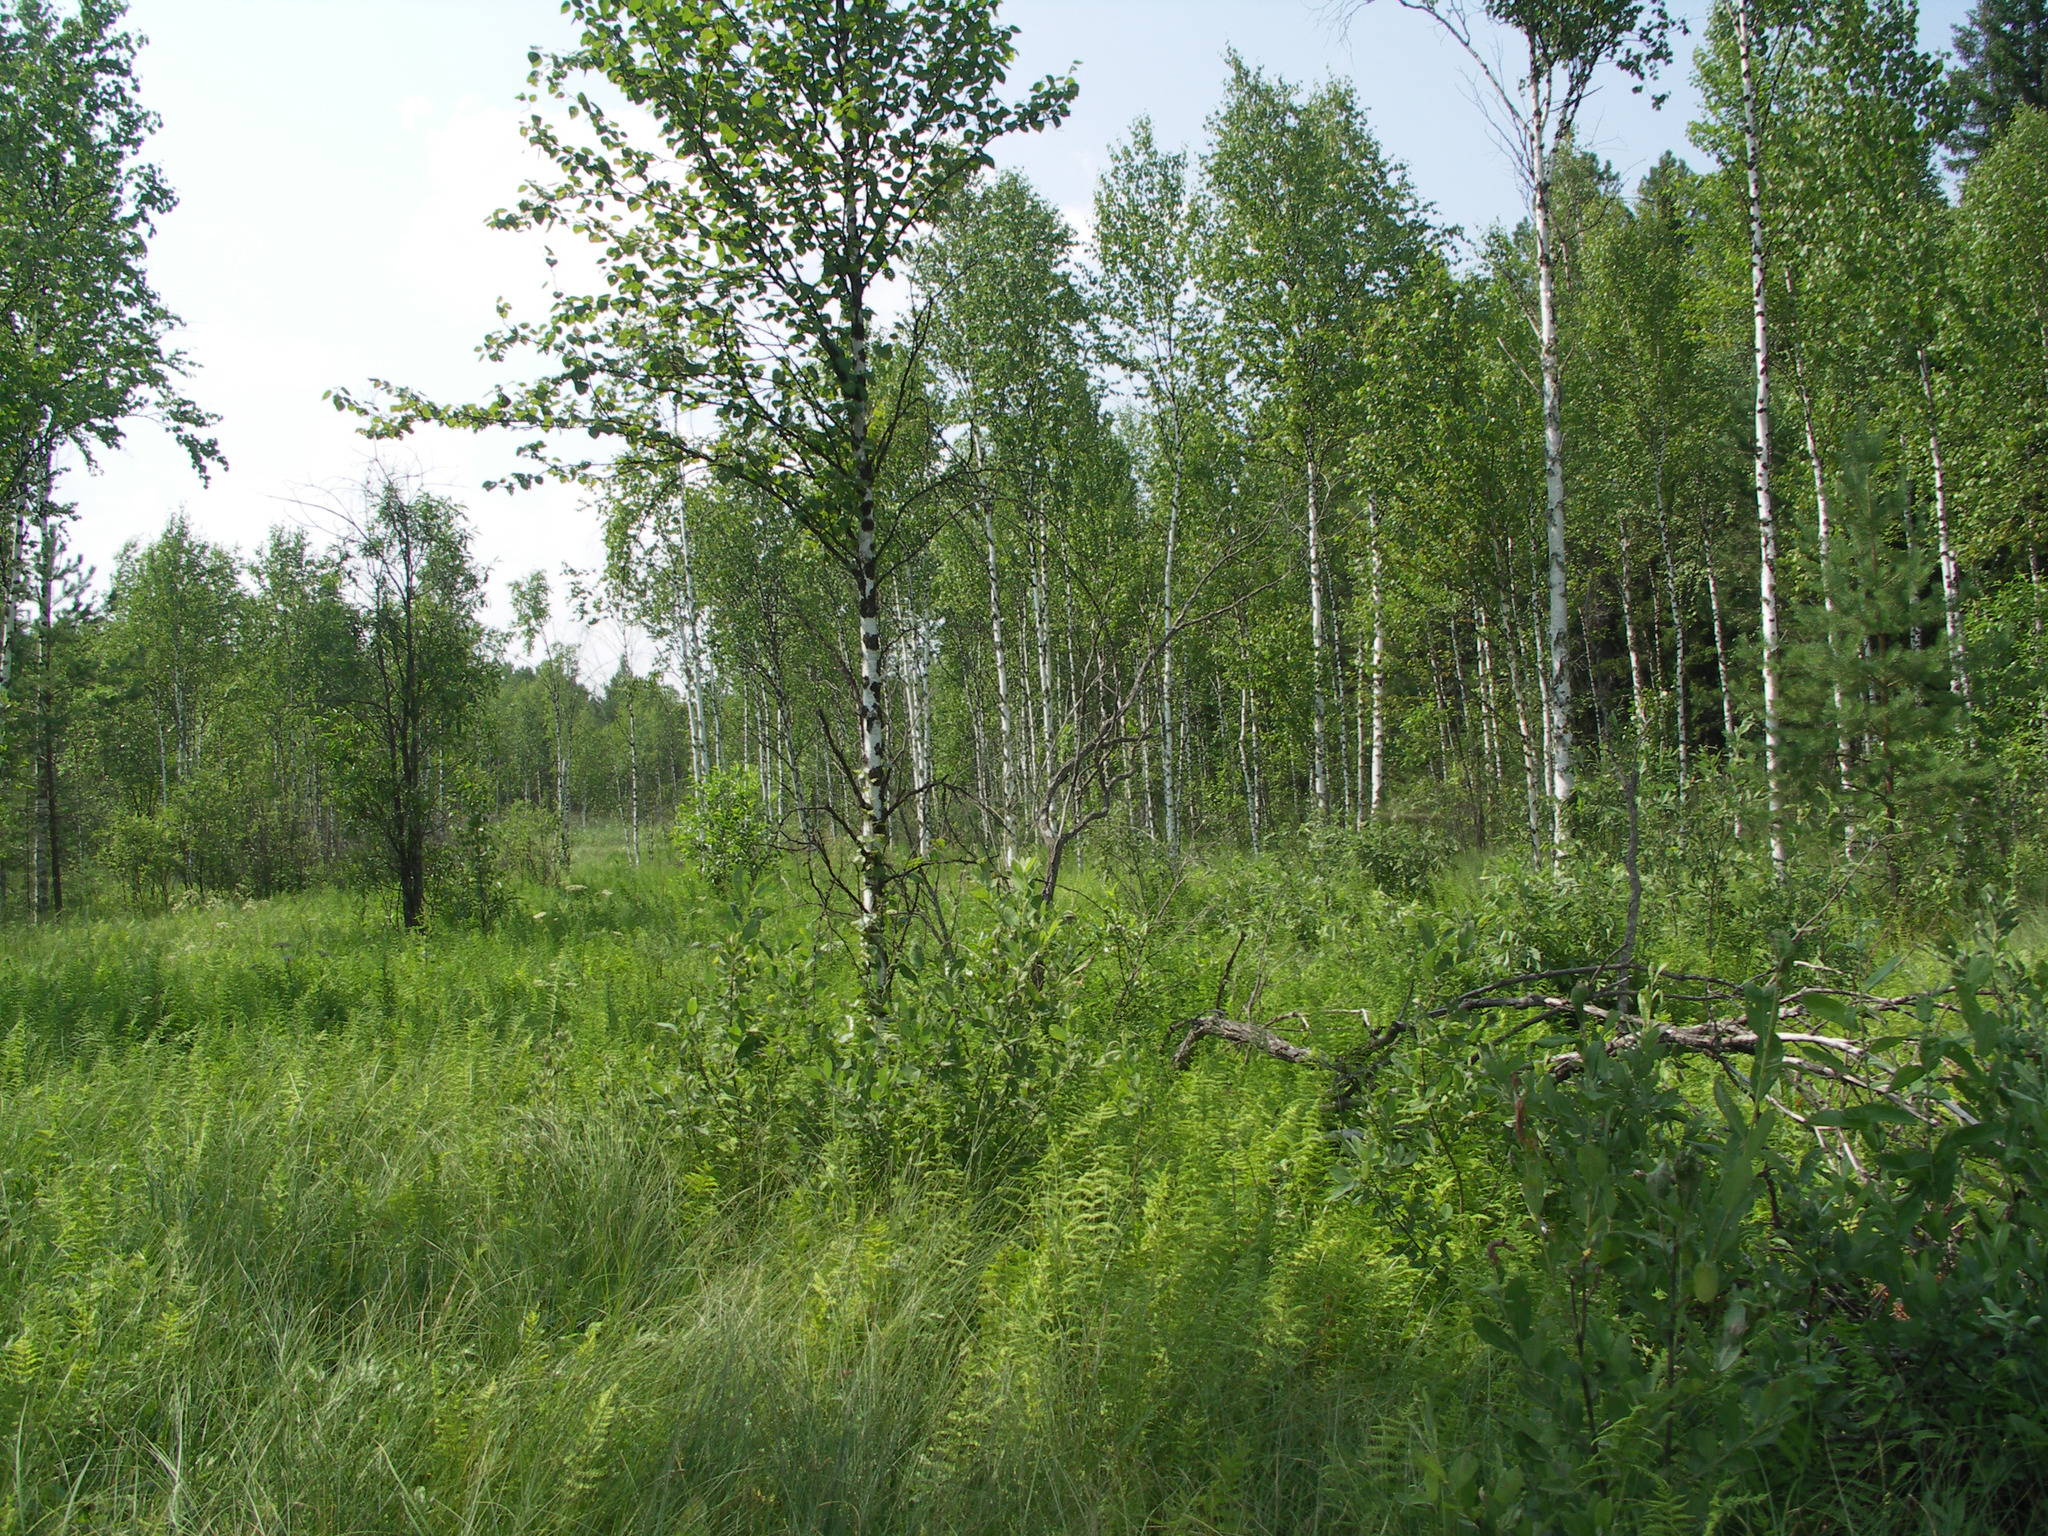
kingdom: Plantae
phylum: Tracheophyta
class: Magnoliopsida
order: Fagales
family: Betulaceae
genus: Betula
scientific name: Betula pubescens
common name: Downy birch
